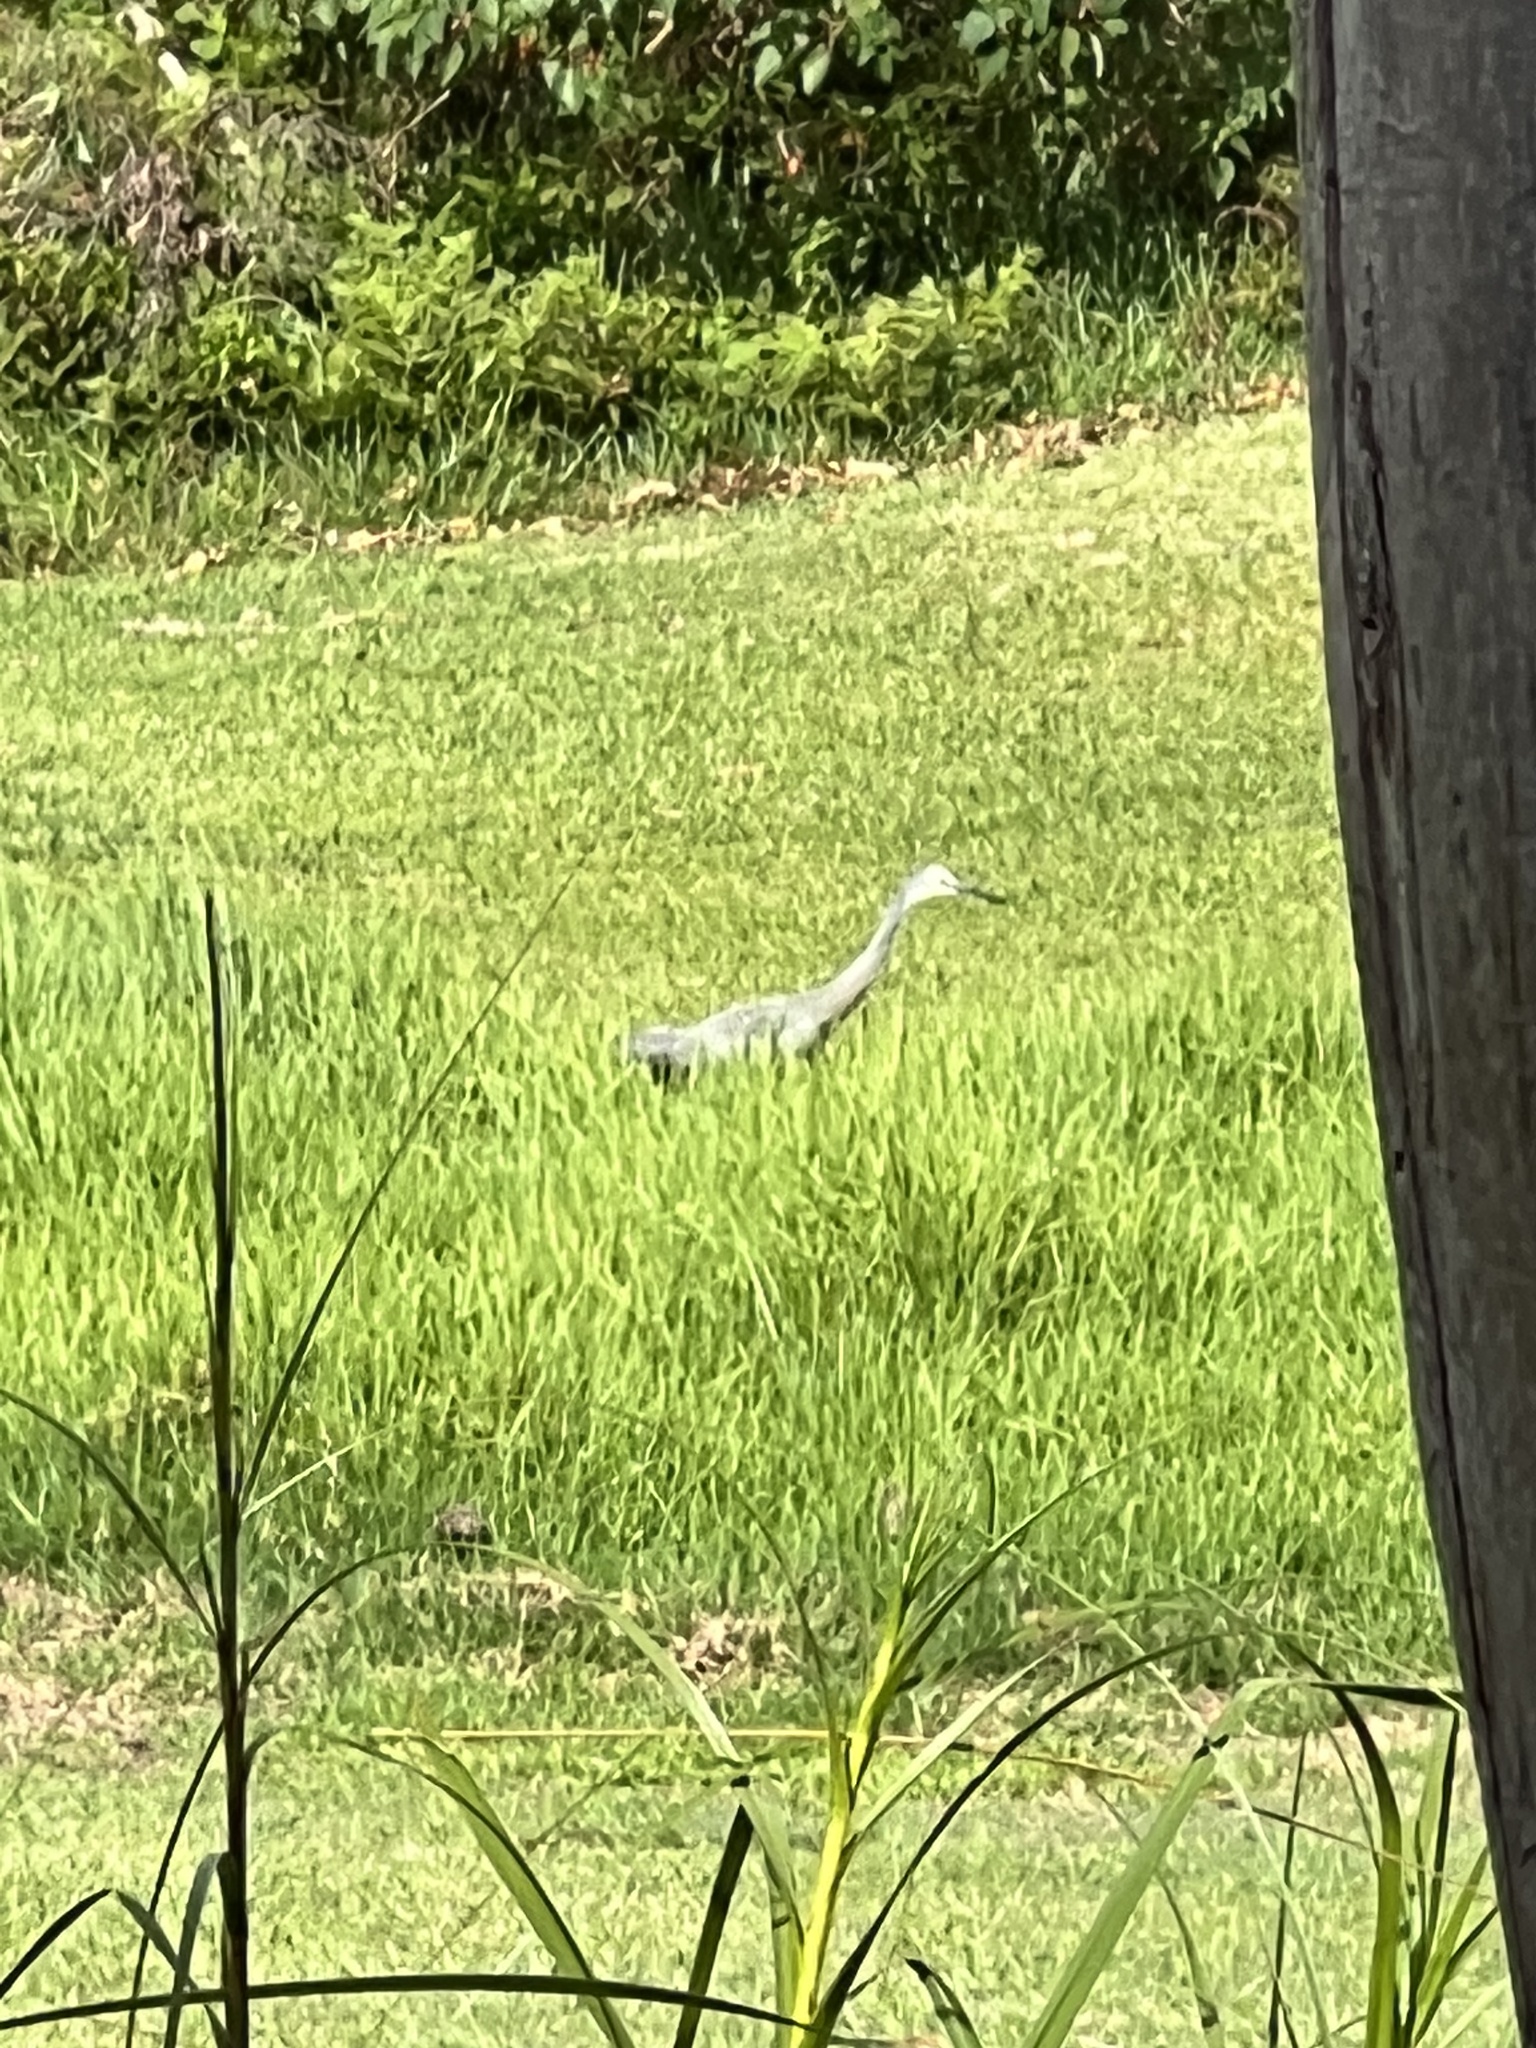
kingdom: Animalia
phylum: Chordata
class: Aves
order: Pelecaniformes
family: Ardeidae
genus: Egretta
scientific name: Egretta novaehollandiae
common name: White-faced heron
